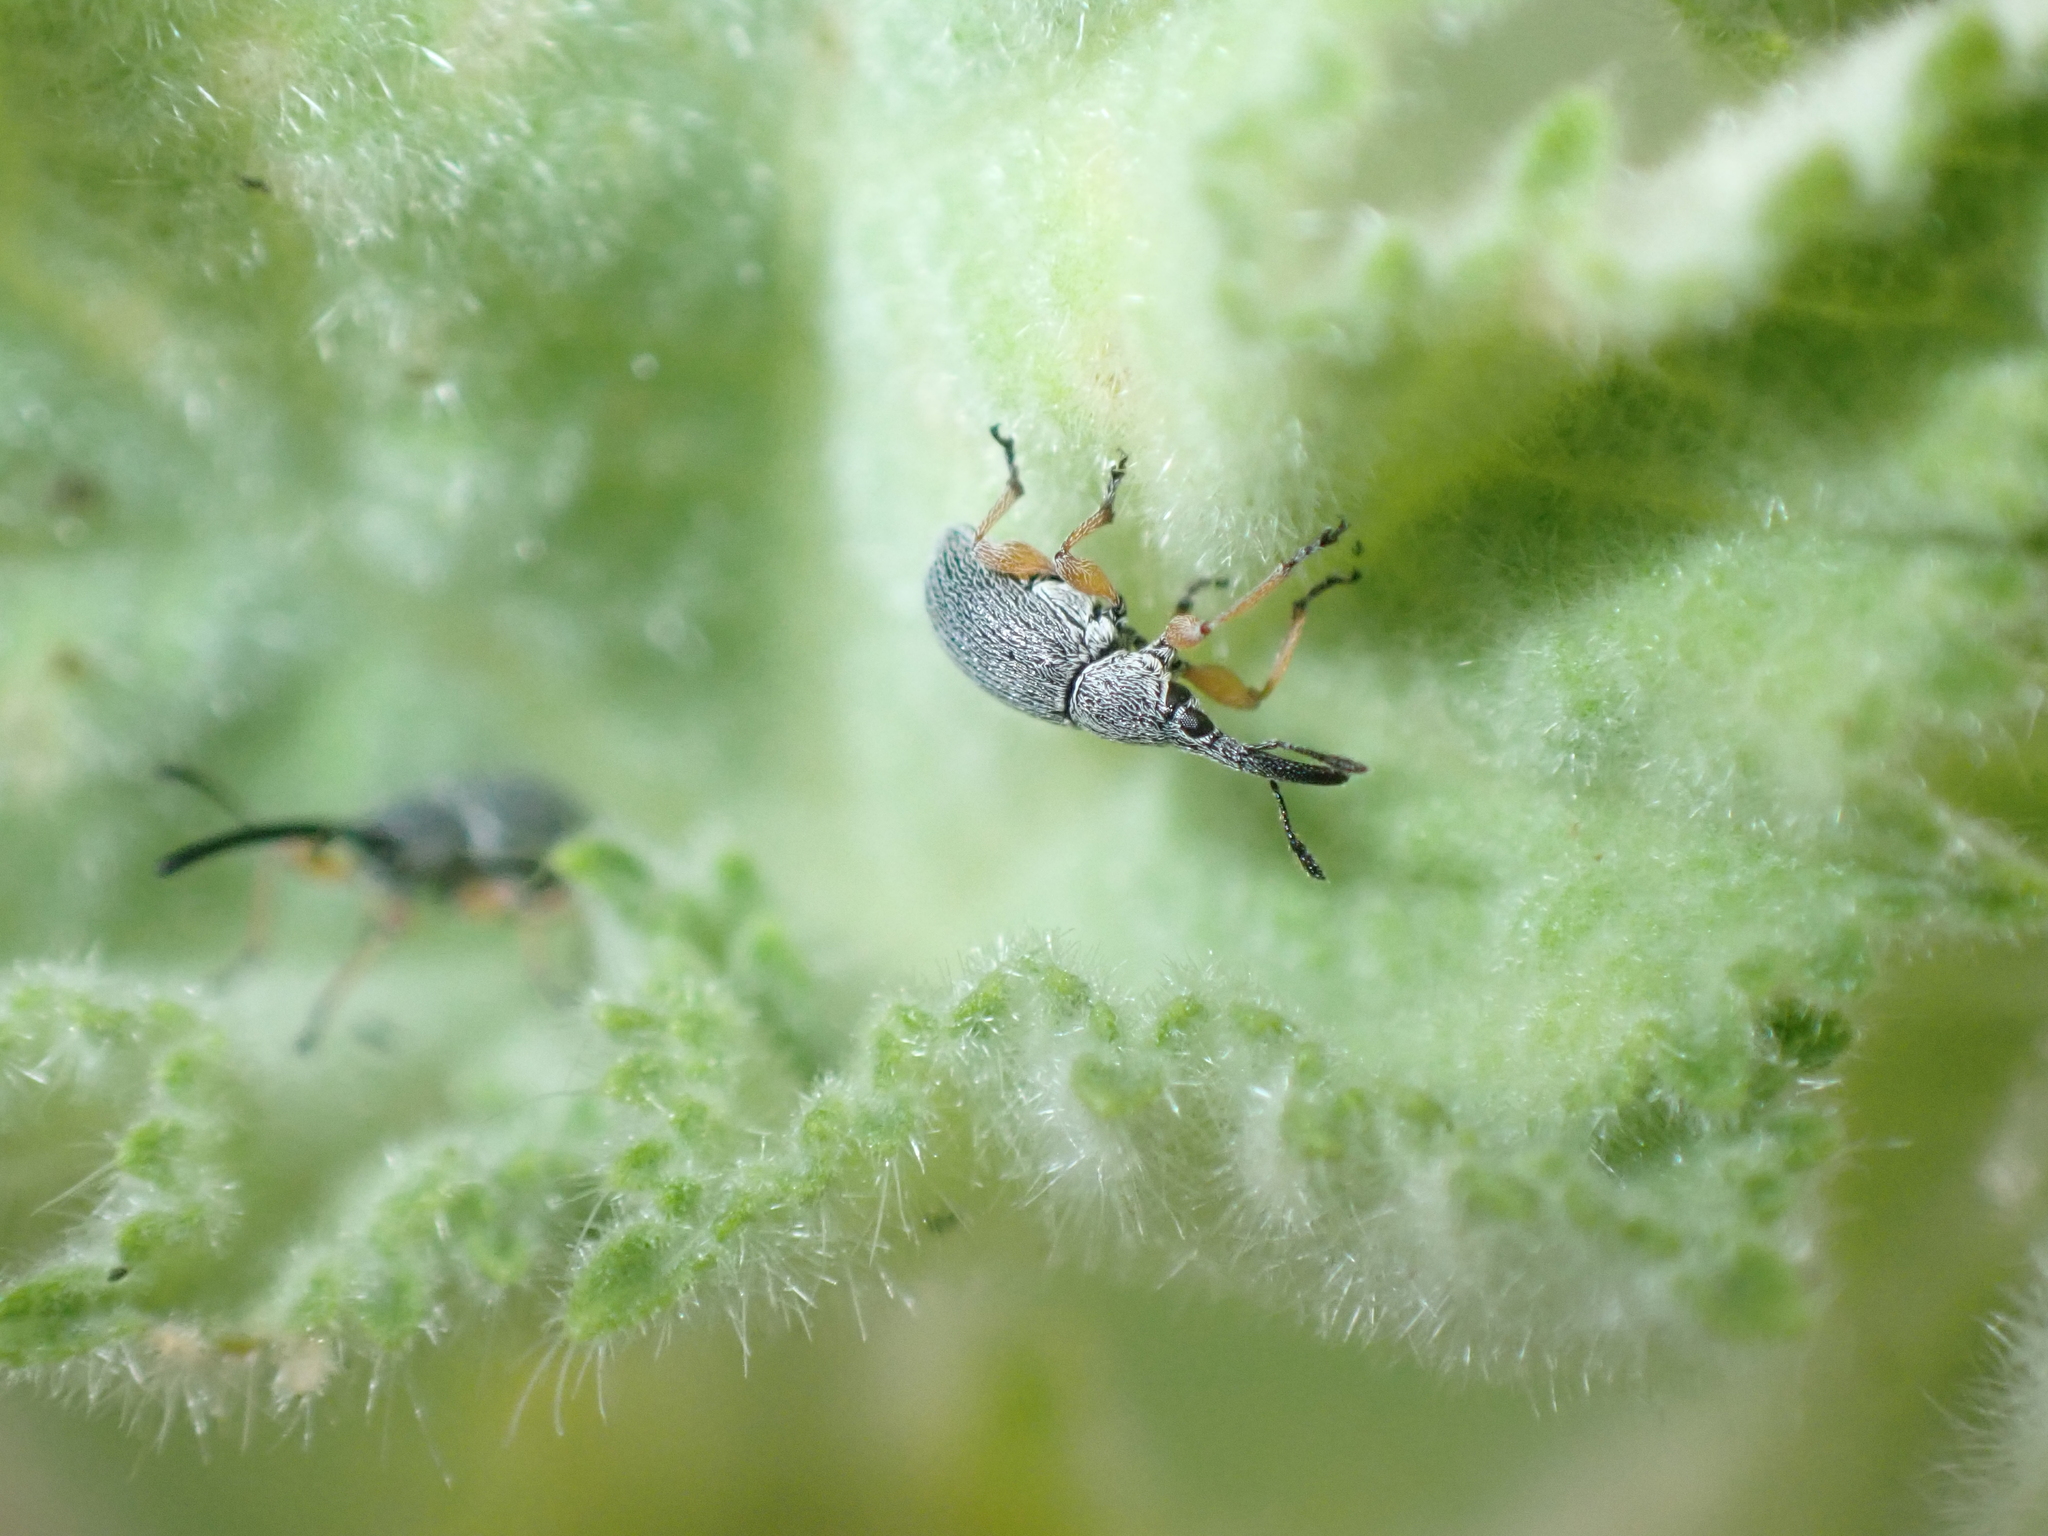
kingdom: Animalia
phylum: Arthropoda
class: Insecta
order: Coleoptera
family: Brentidae
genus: Rhopalapion
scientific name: Rhopalapion longirostre
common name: Hollyhock weevil
